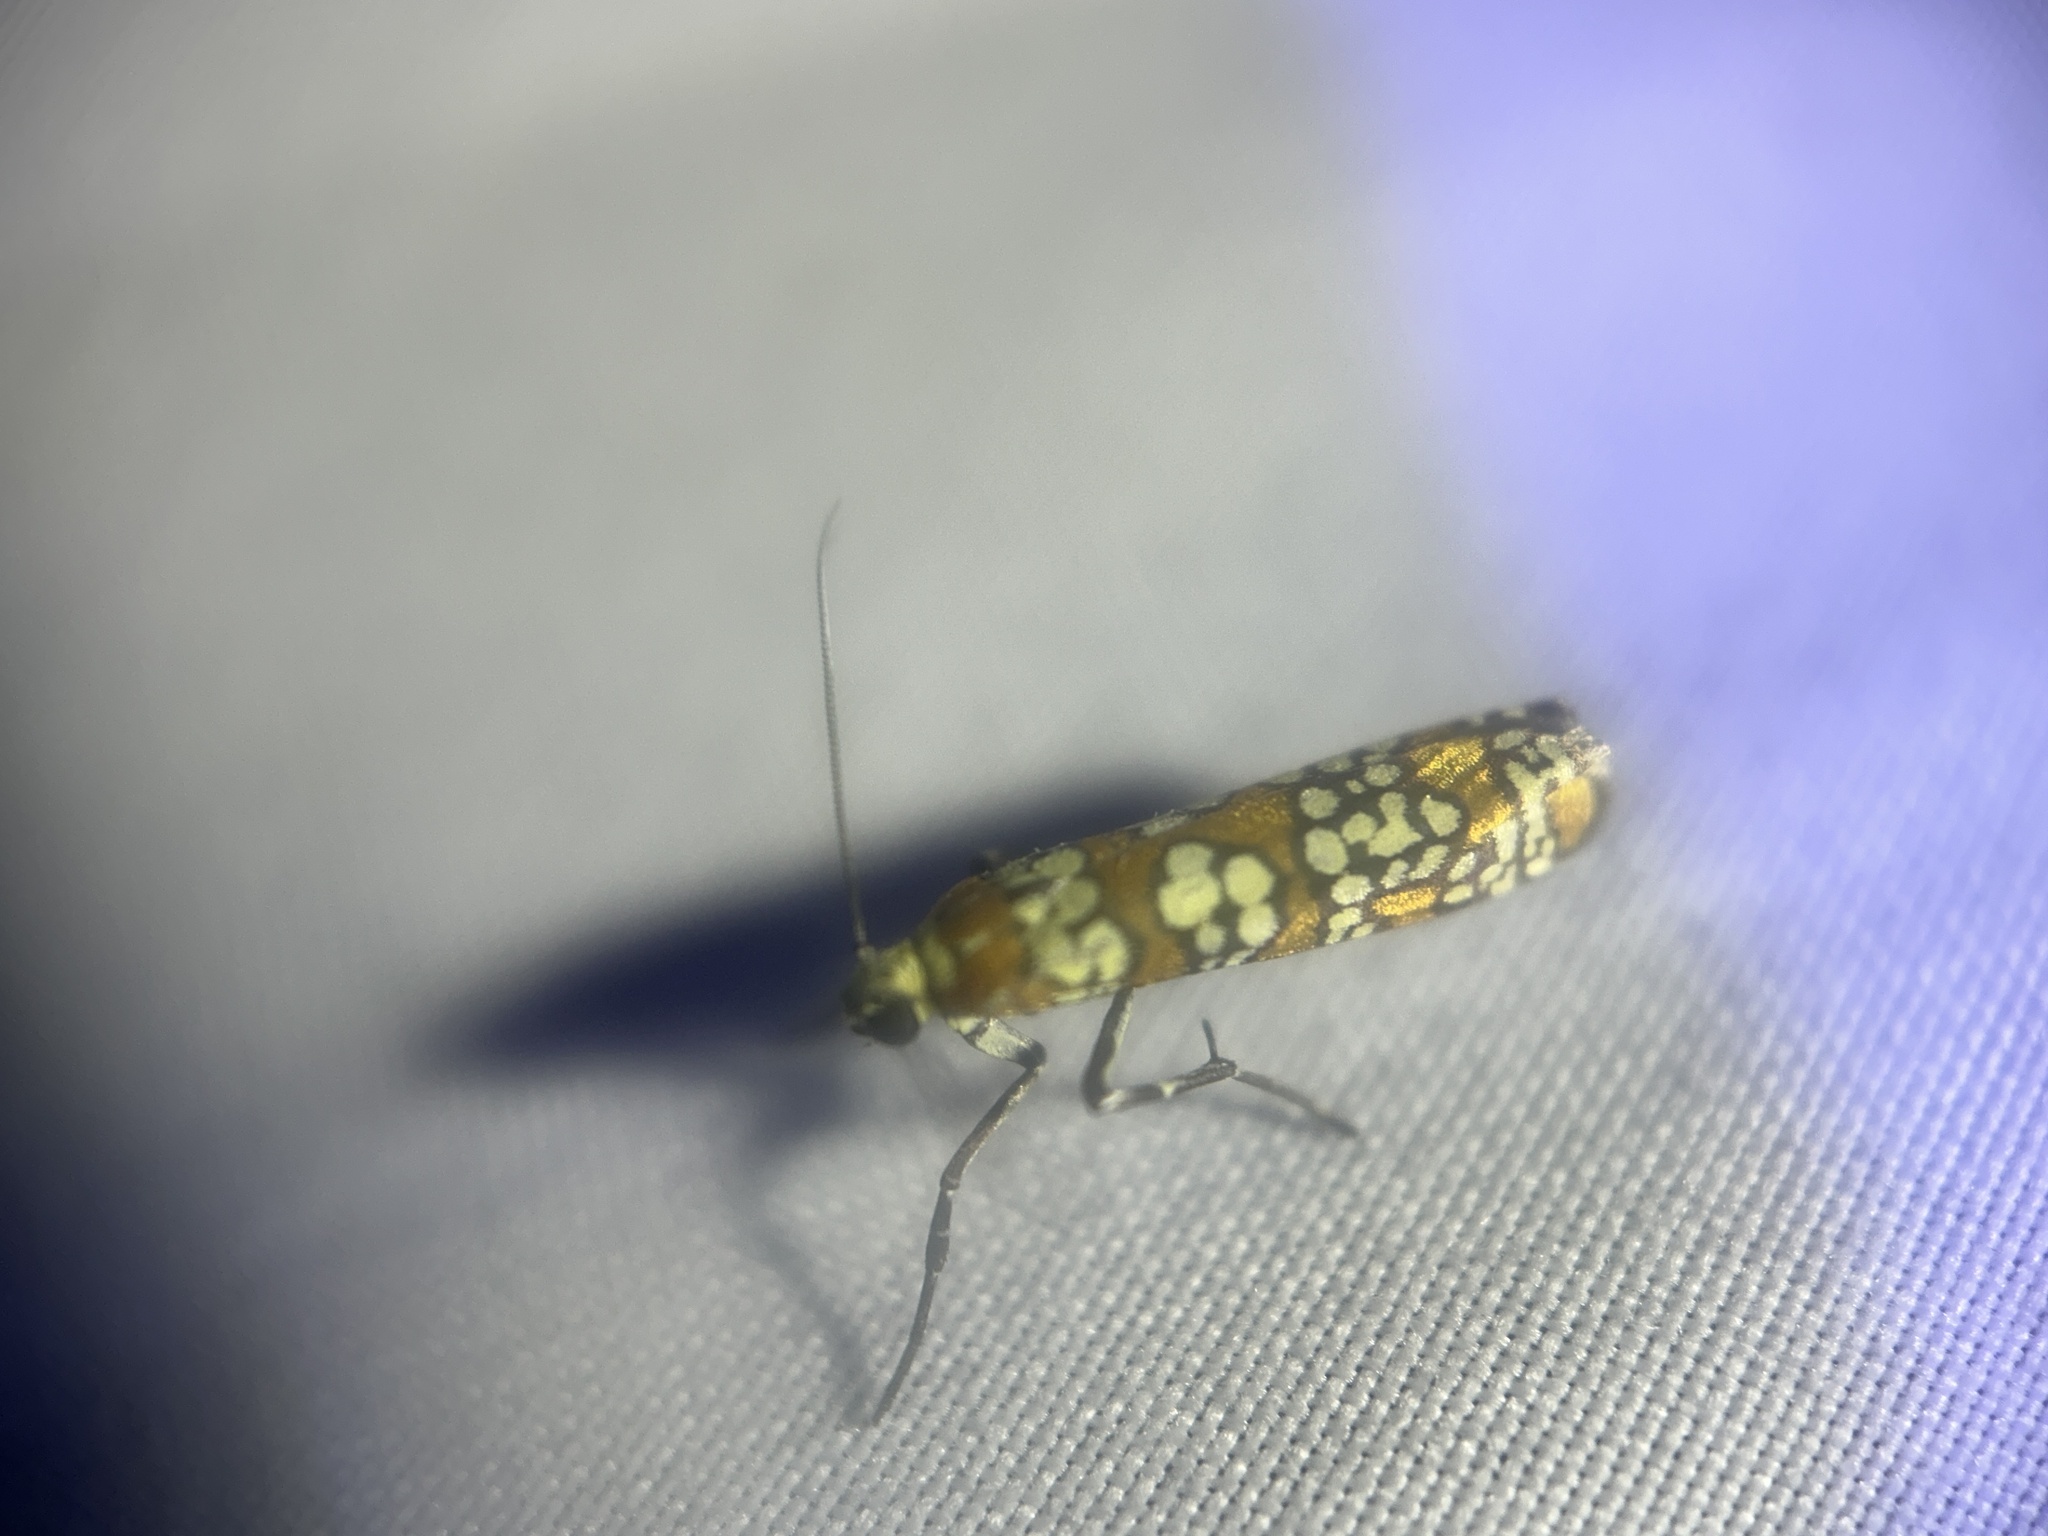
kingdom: Animalia
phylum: Arthropoda
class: Insecta
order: Lepidoptera
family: Attevidae
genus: Atteva
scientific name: Atteva punctella
